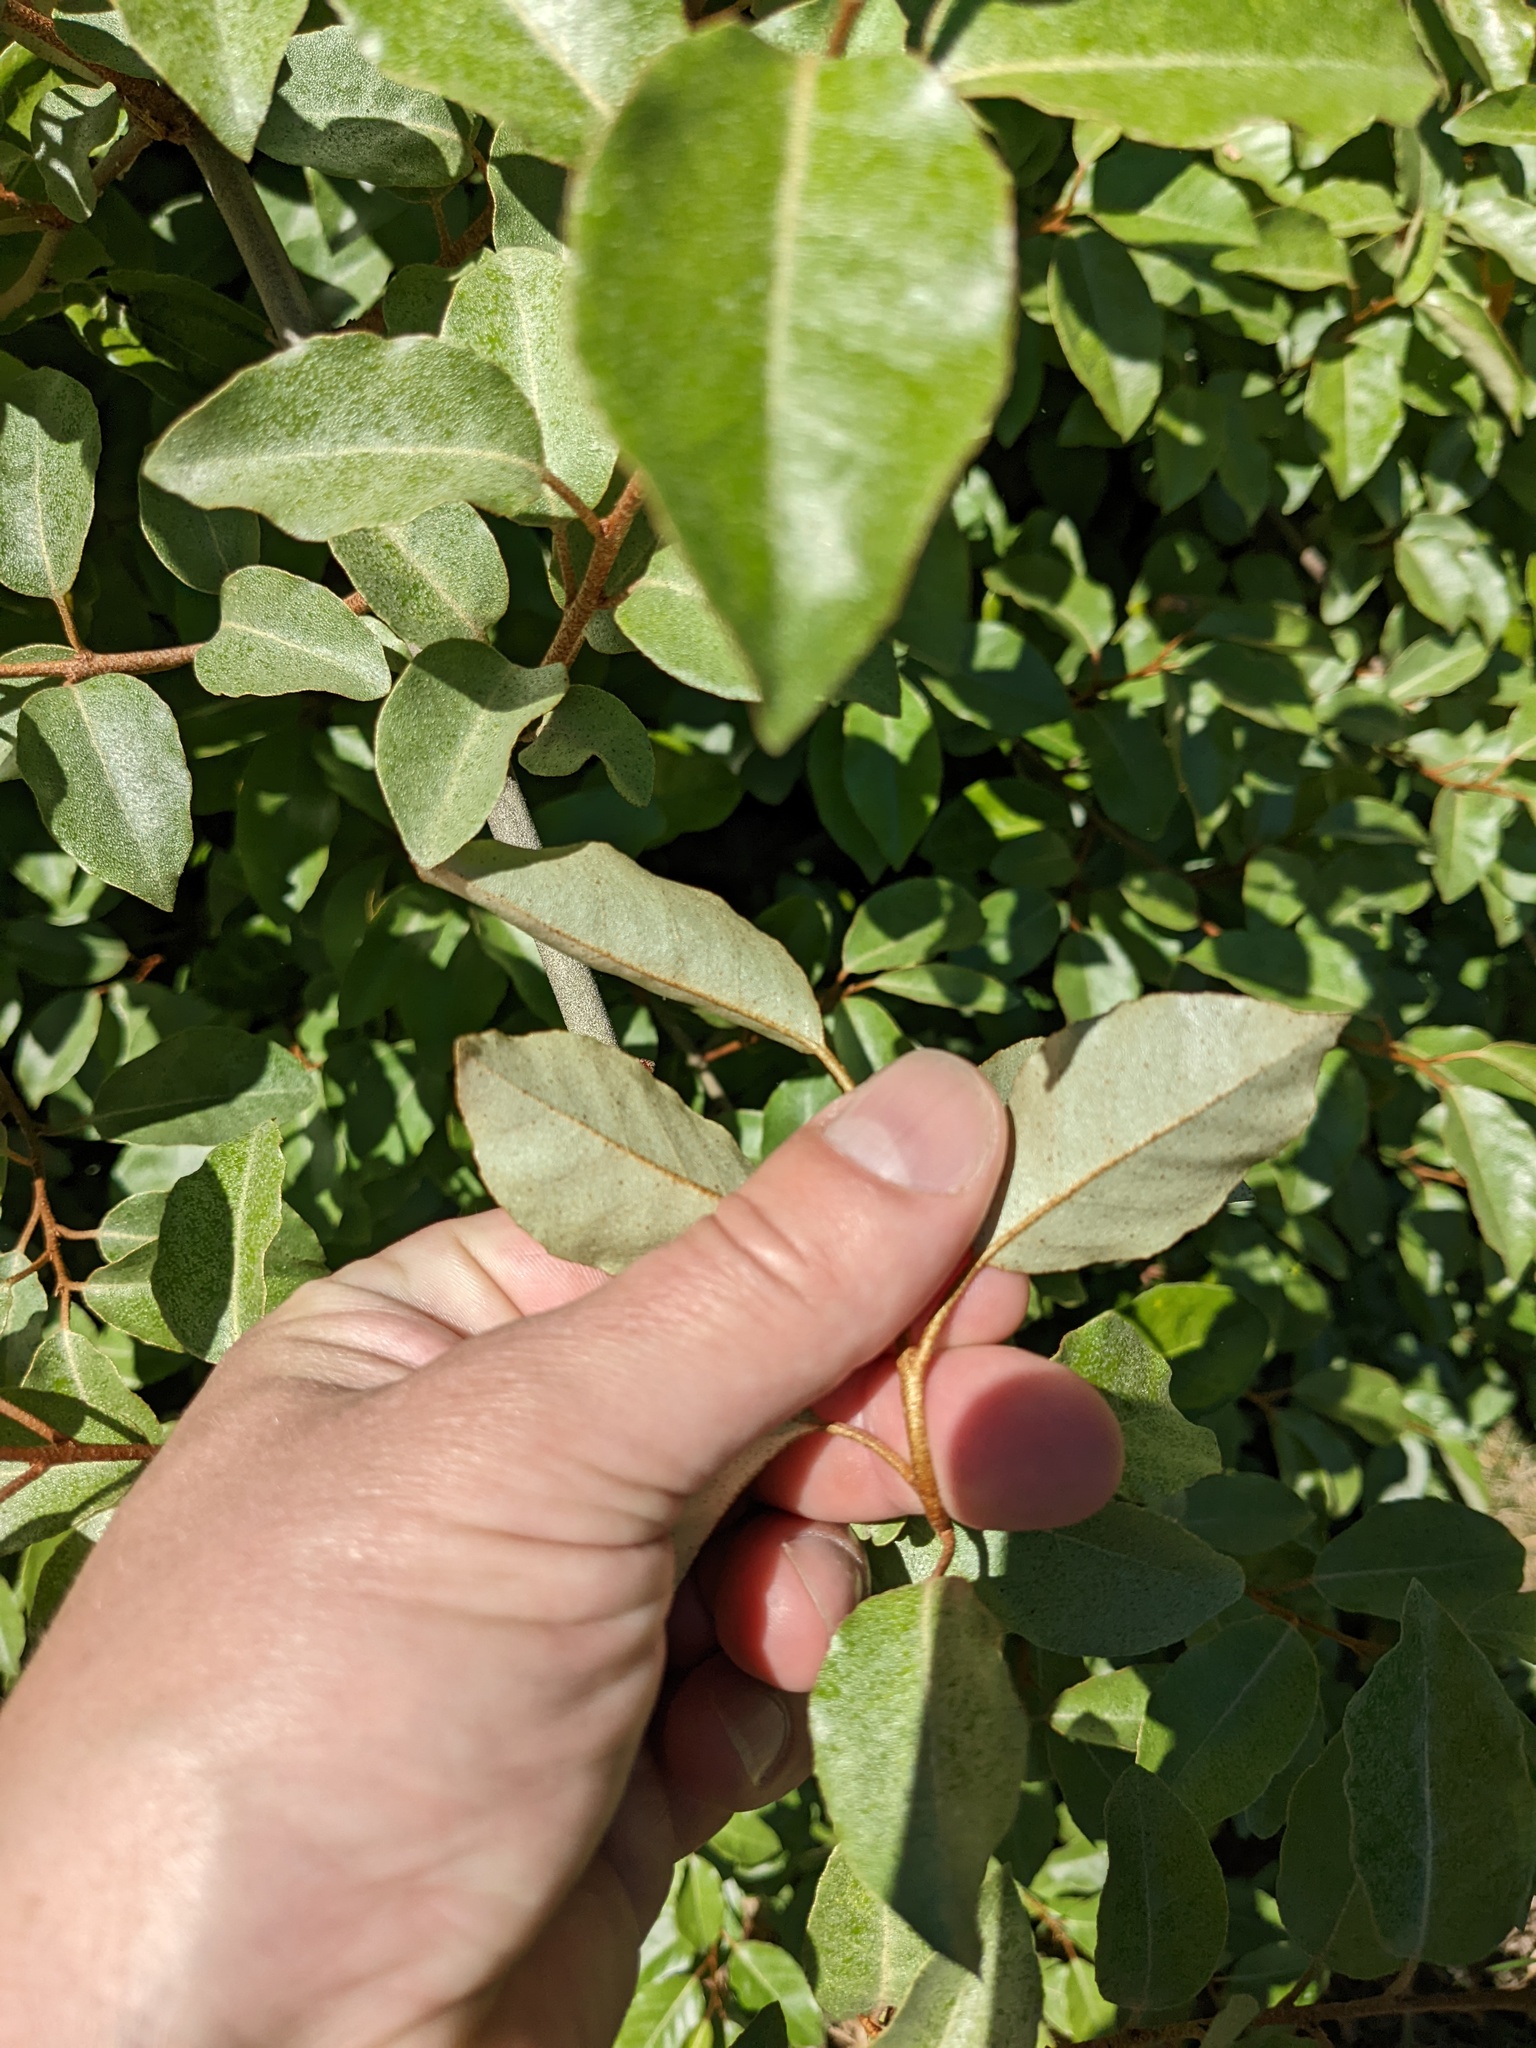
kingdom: Plantae
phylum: Tracheophyta
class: Magnoliopsida
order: Rosales
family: Elaeagnaceae
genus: Elaeagnus
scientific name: Elaeagnus pungens
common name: Spiny oleaster
